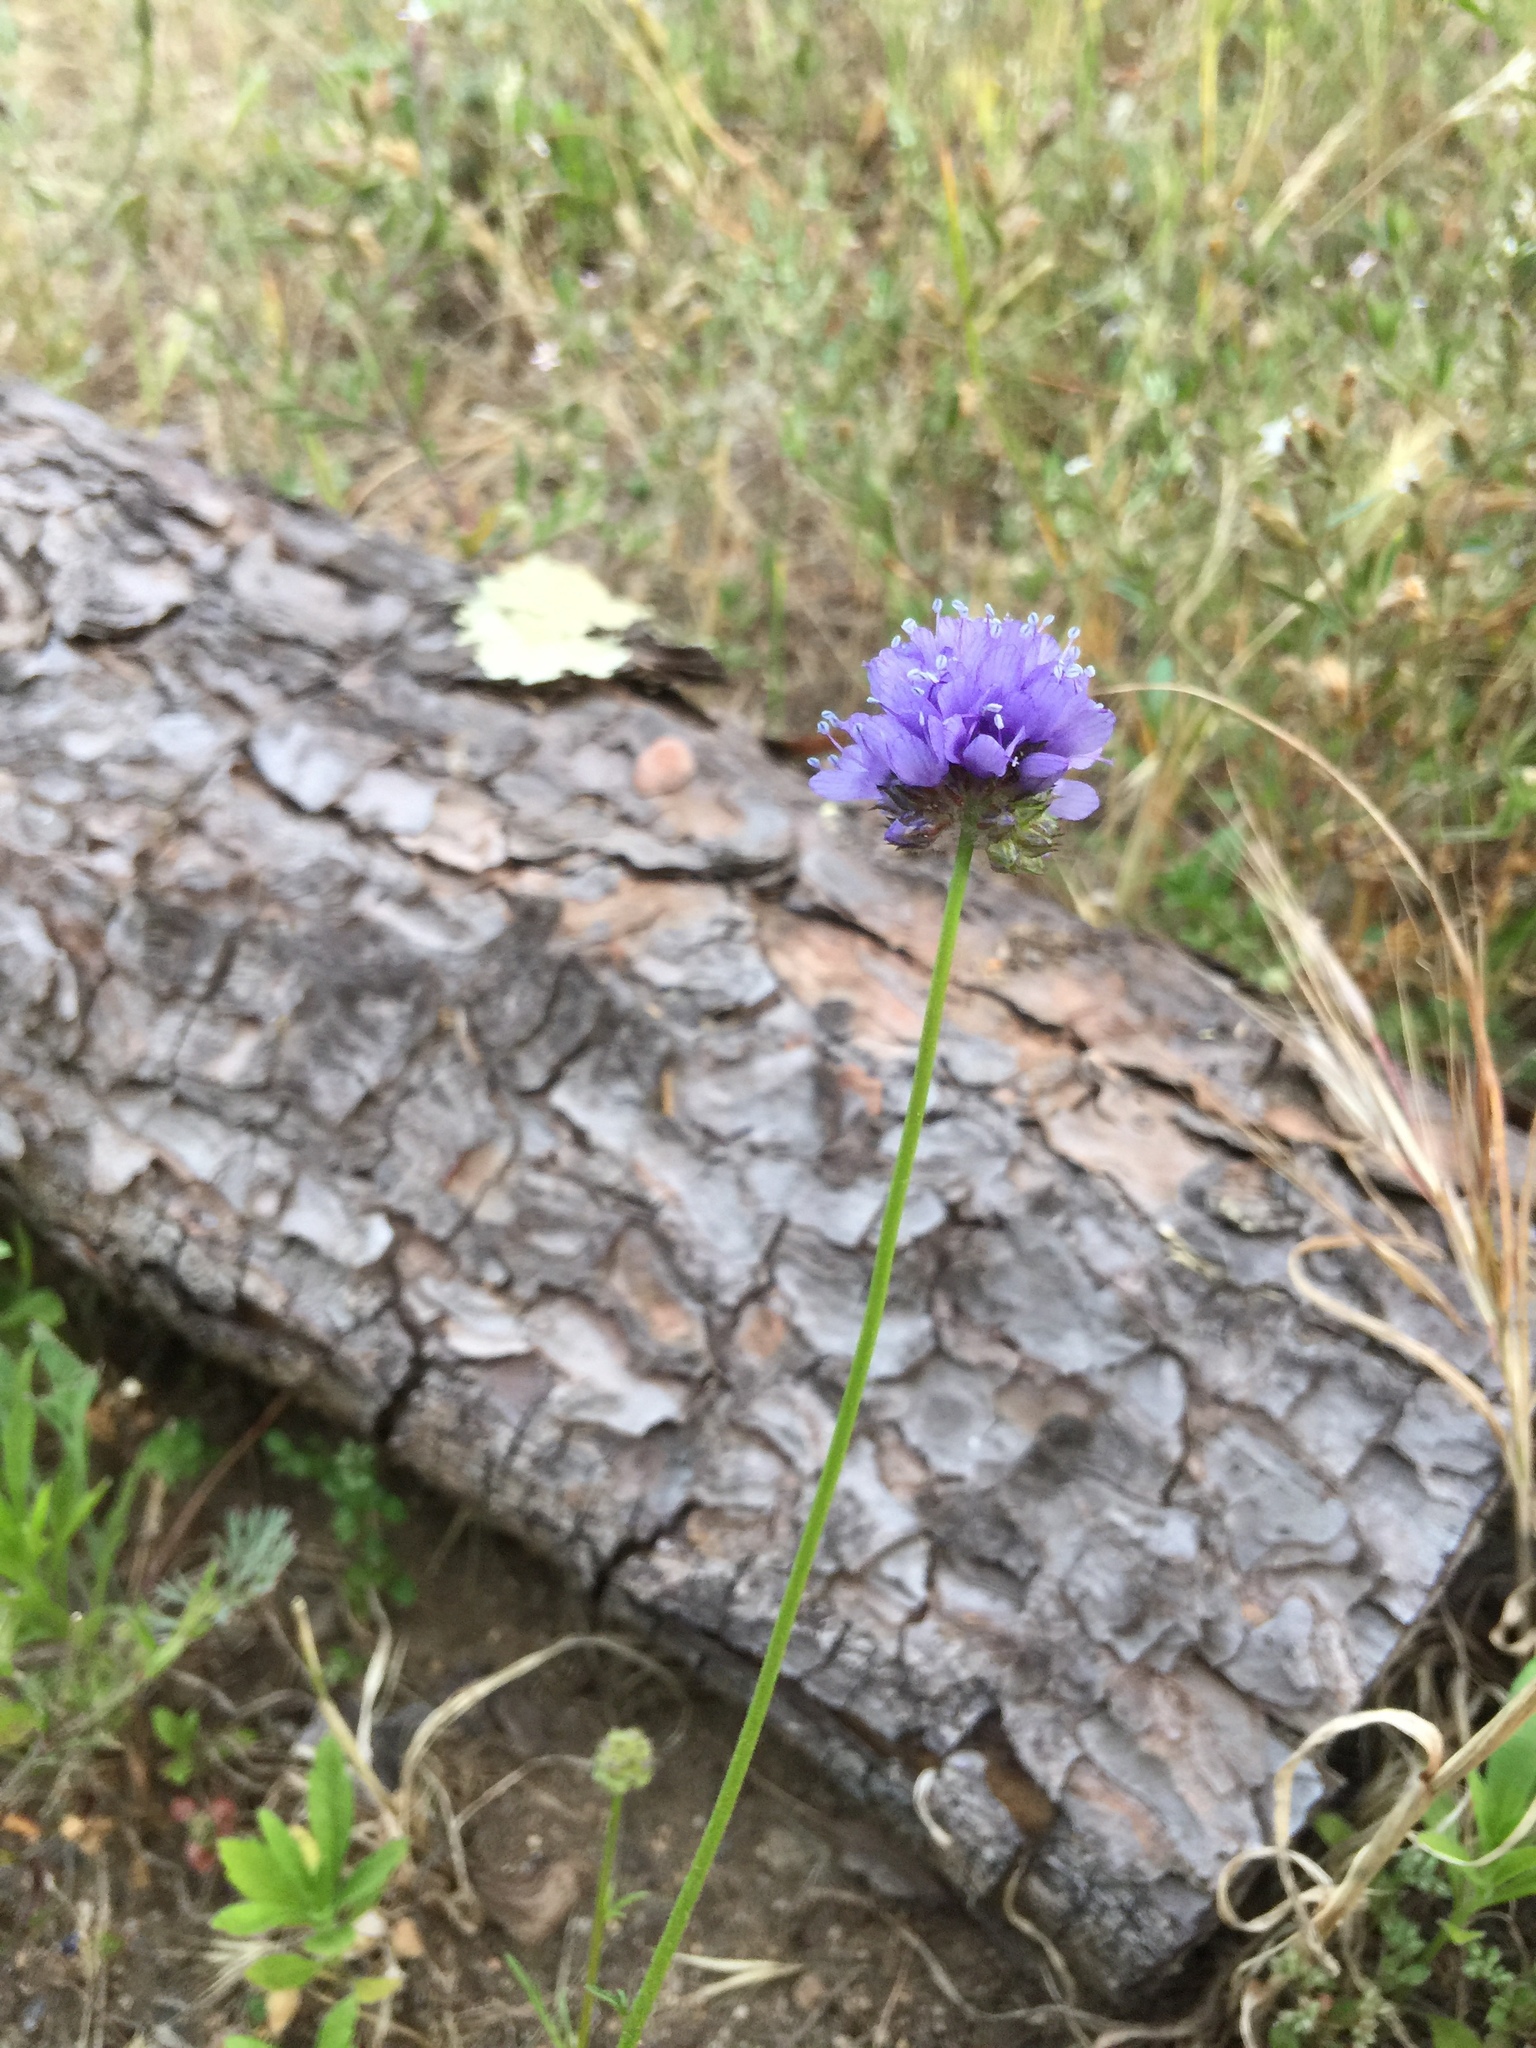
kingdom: Plantae
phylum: Tracheophyta
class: Magnoliopsida
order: Ericales
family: Polemoniaceae
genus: Gilia
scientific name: Gilia capitata
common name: Bluehead gilia
